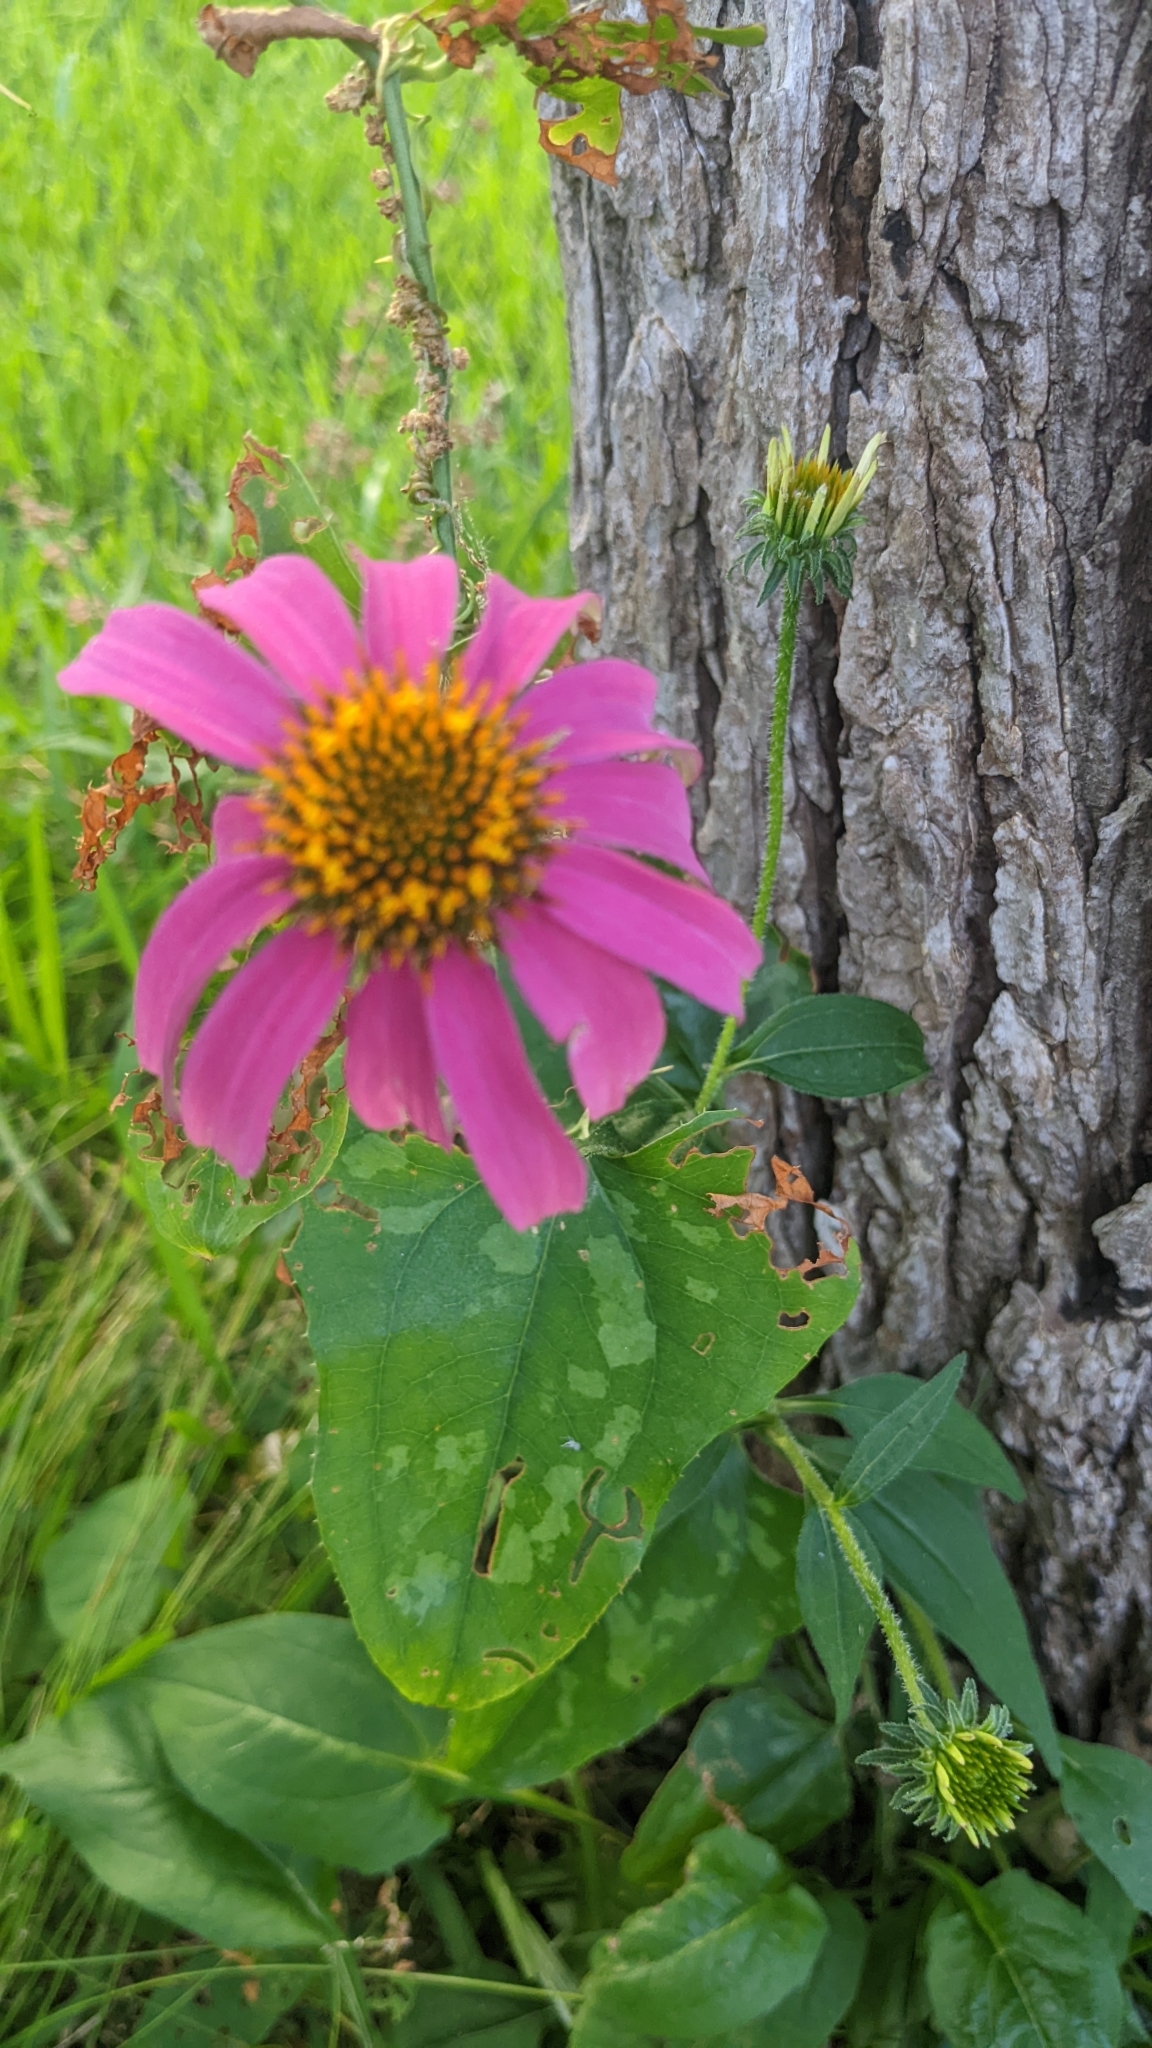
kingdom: Plantae
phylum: Tracheophyta
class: Magnoliopsida
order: Asterales
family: Asteraceae
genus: Echinacea
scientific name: Echinacea purpurea
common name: Broad-leaved purple coneflower
